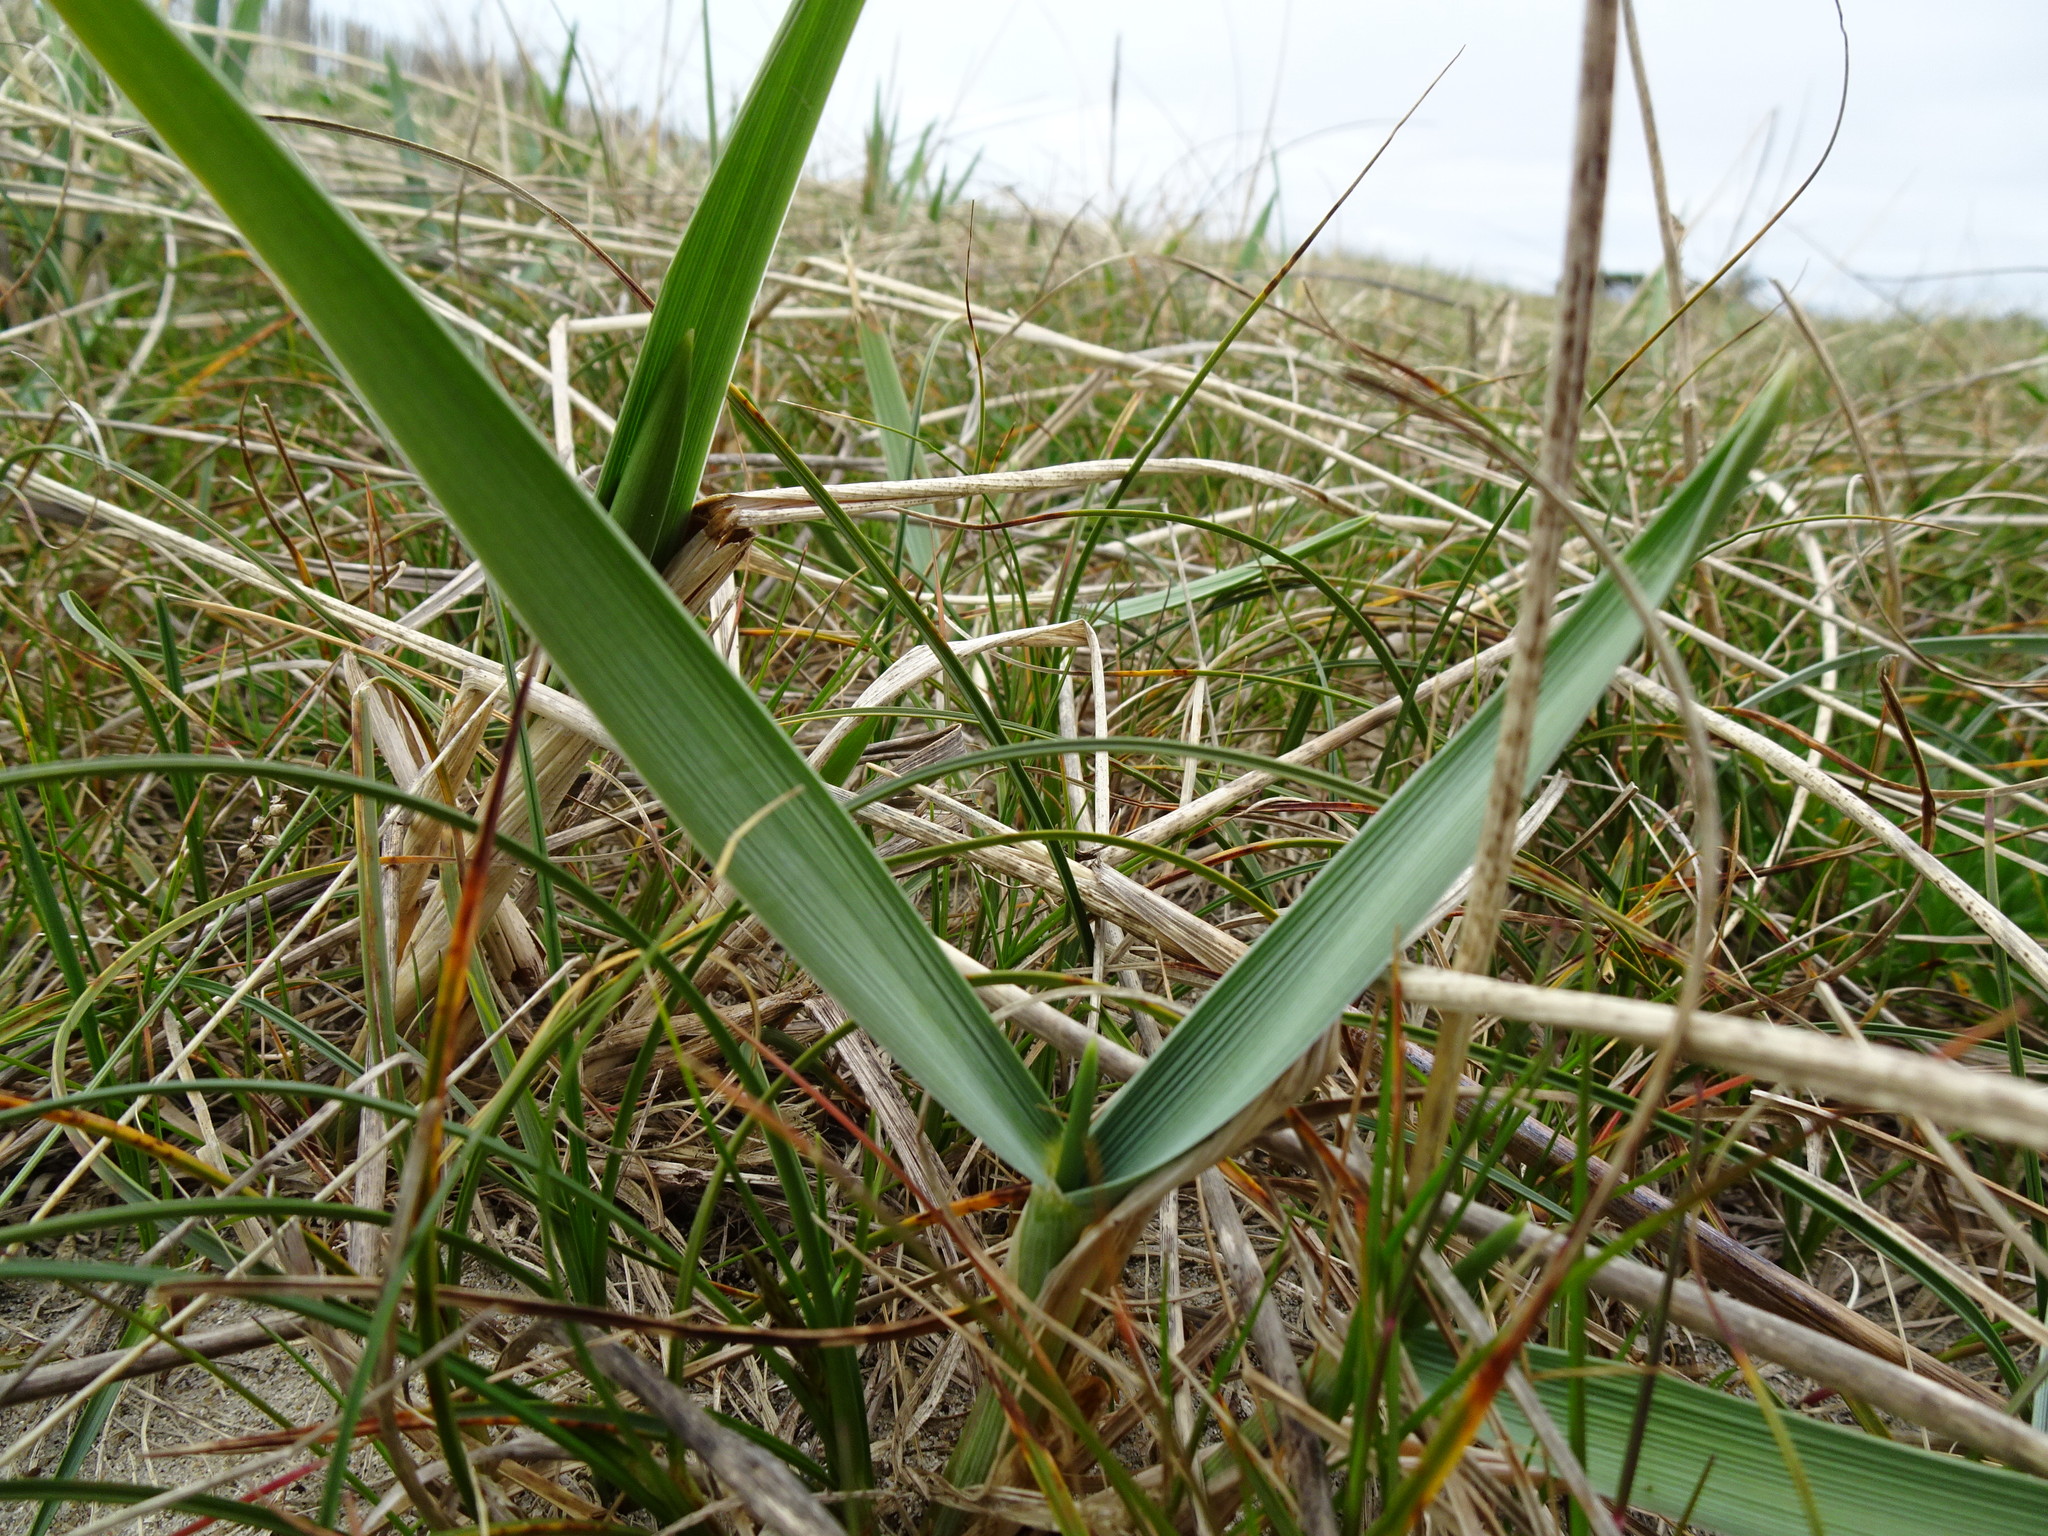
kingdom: Plantae
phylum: Tracheophyta
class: Liliopsida
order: Poales
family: Poaceae
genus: Leymus
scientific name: Leymus arenarius
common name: Lyme-grass
